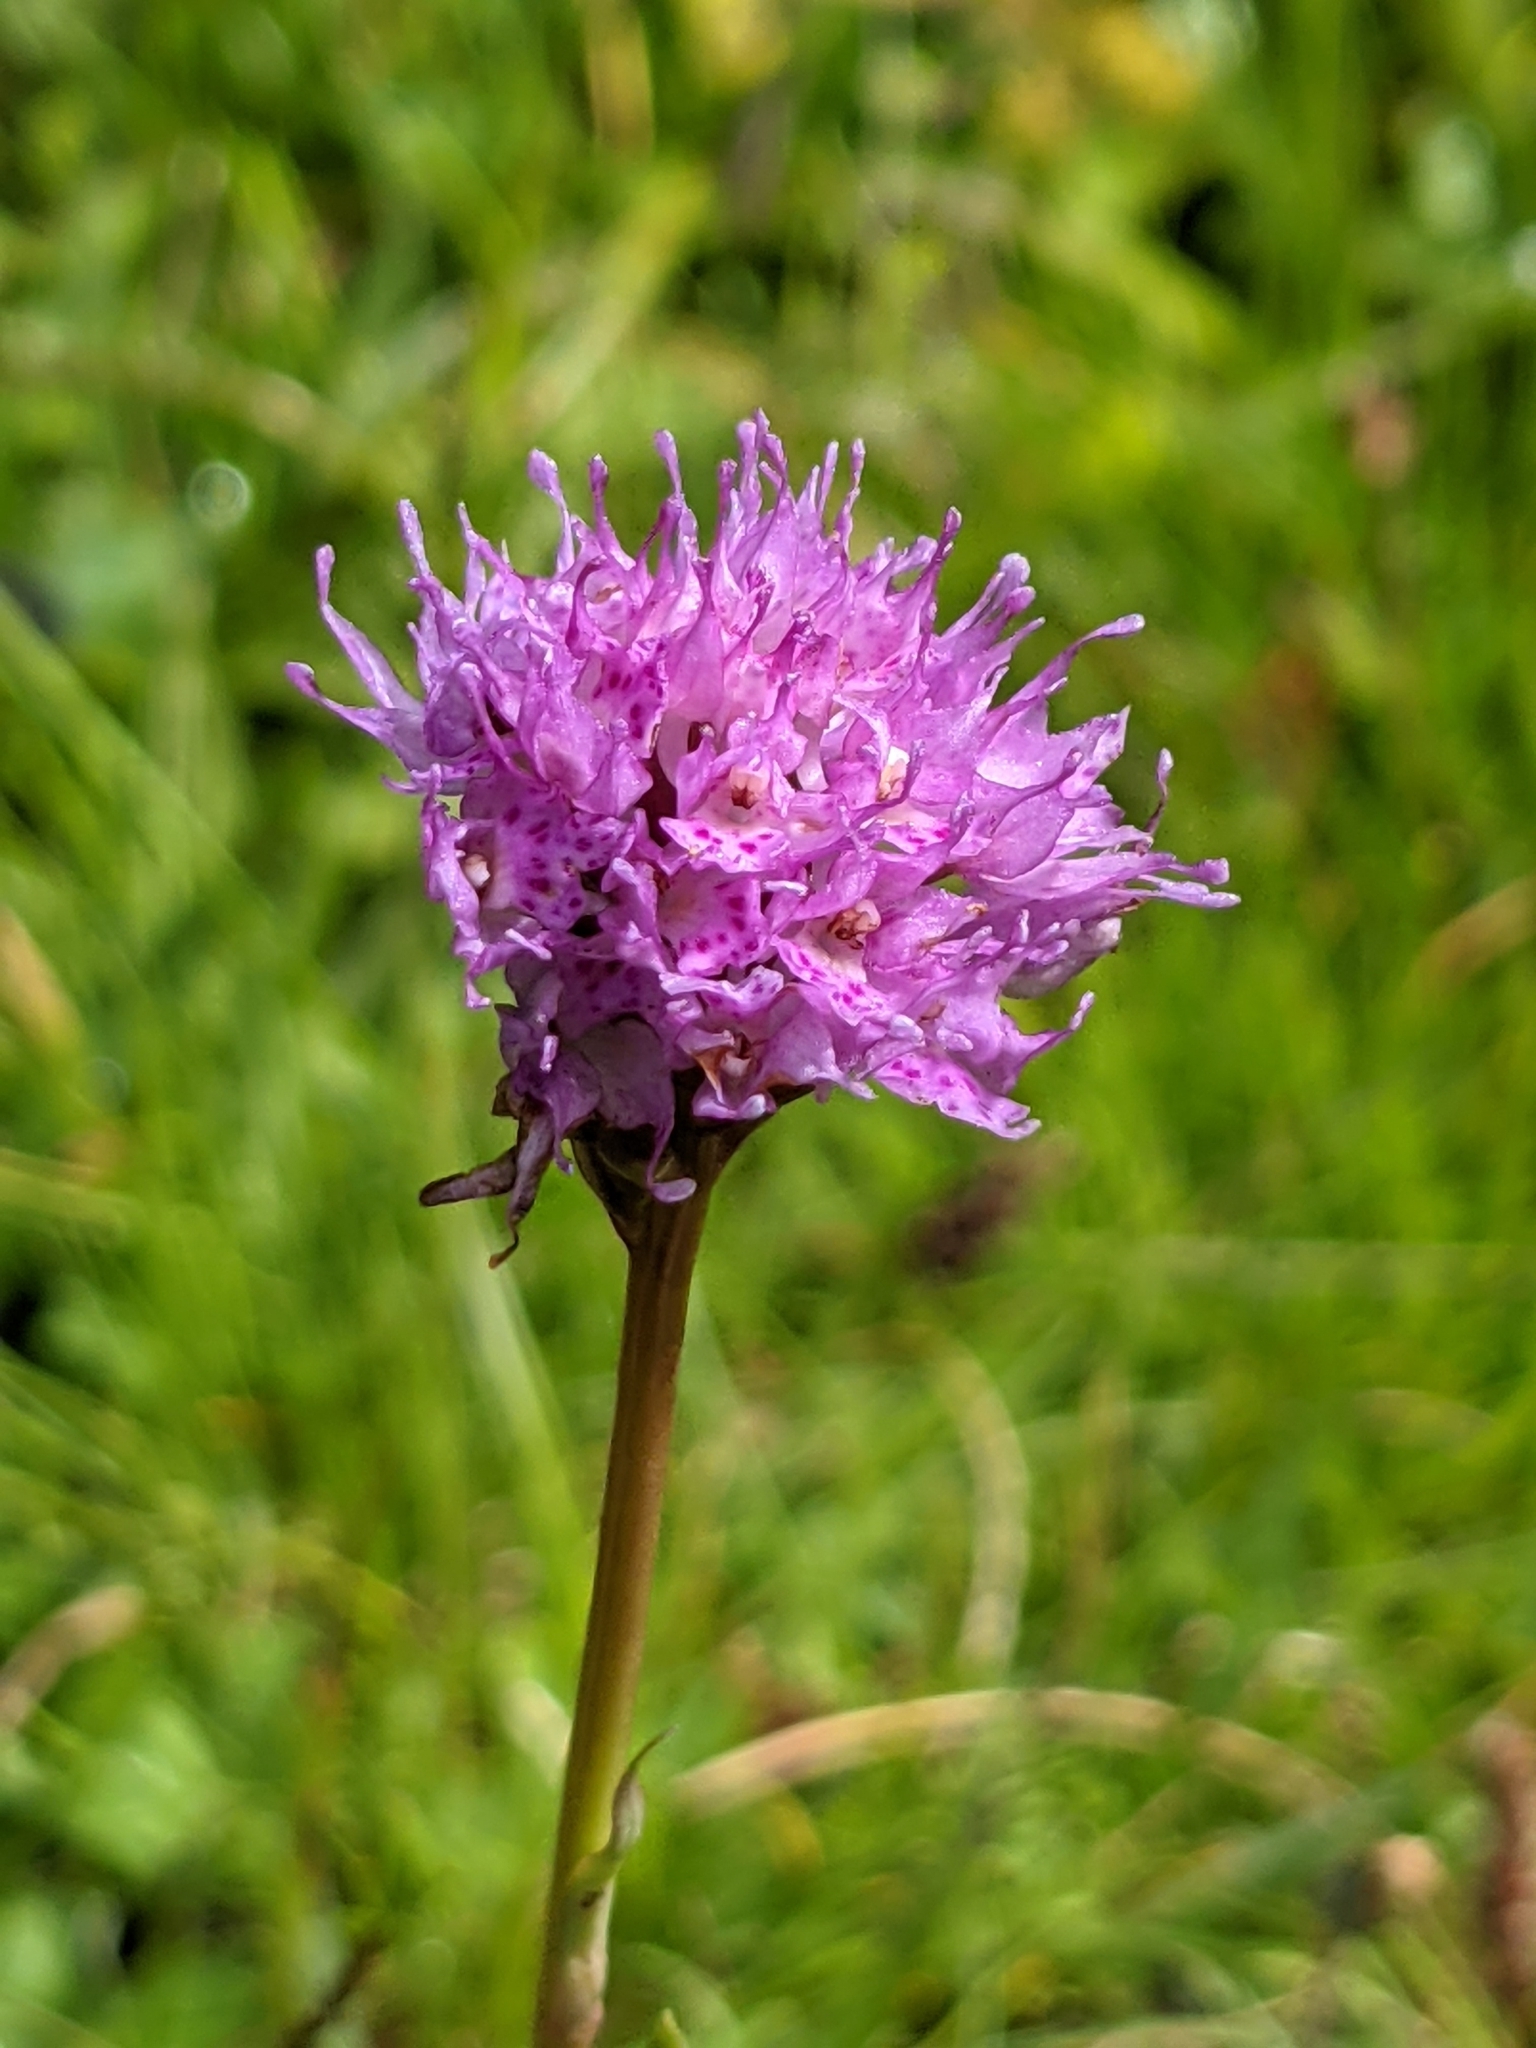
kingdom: Plantae
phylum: Tracheophyta
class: Liliopsida
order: Asparagales
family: Orchidaceae
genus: Traunsteinera
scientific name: Traunsteinera globosa
